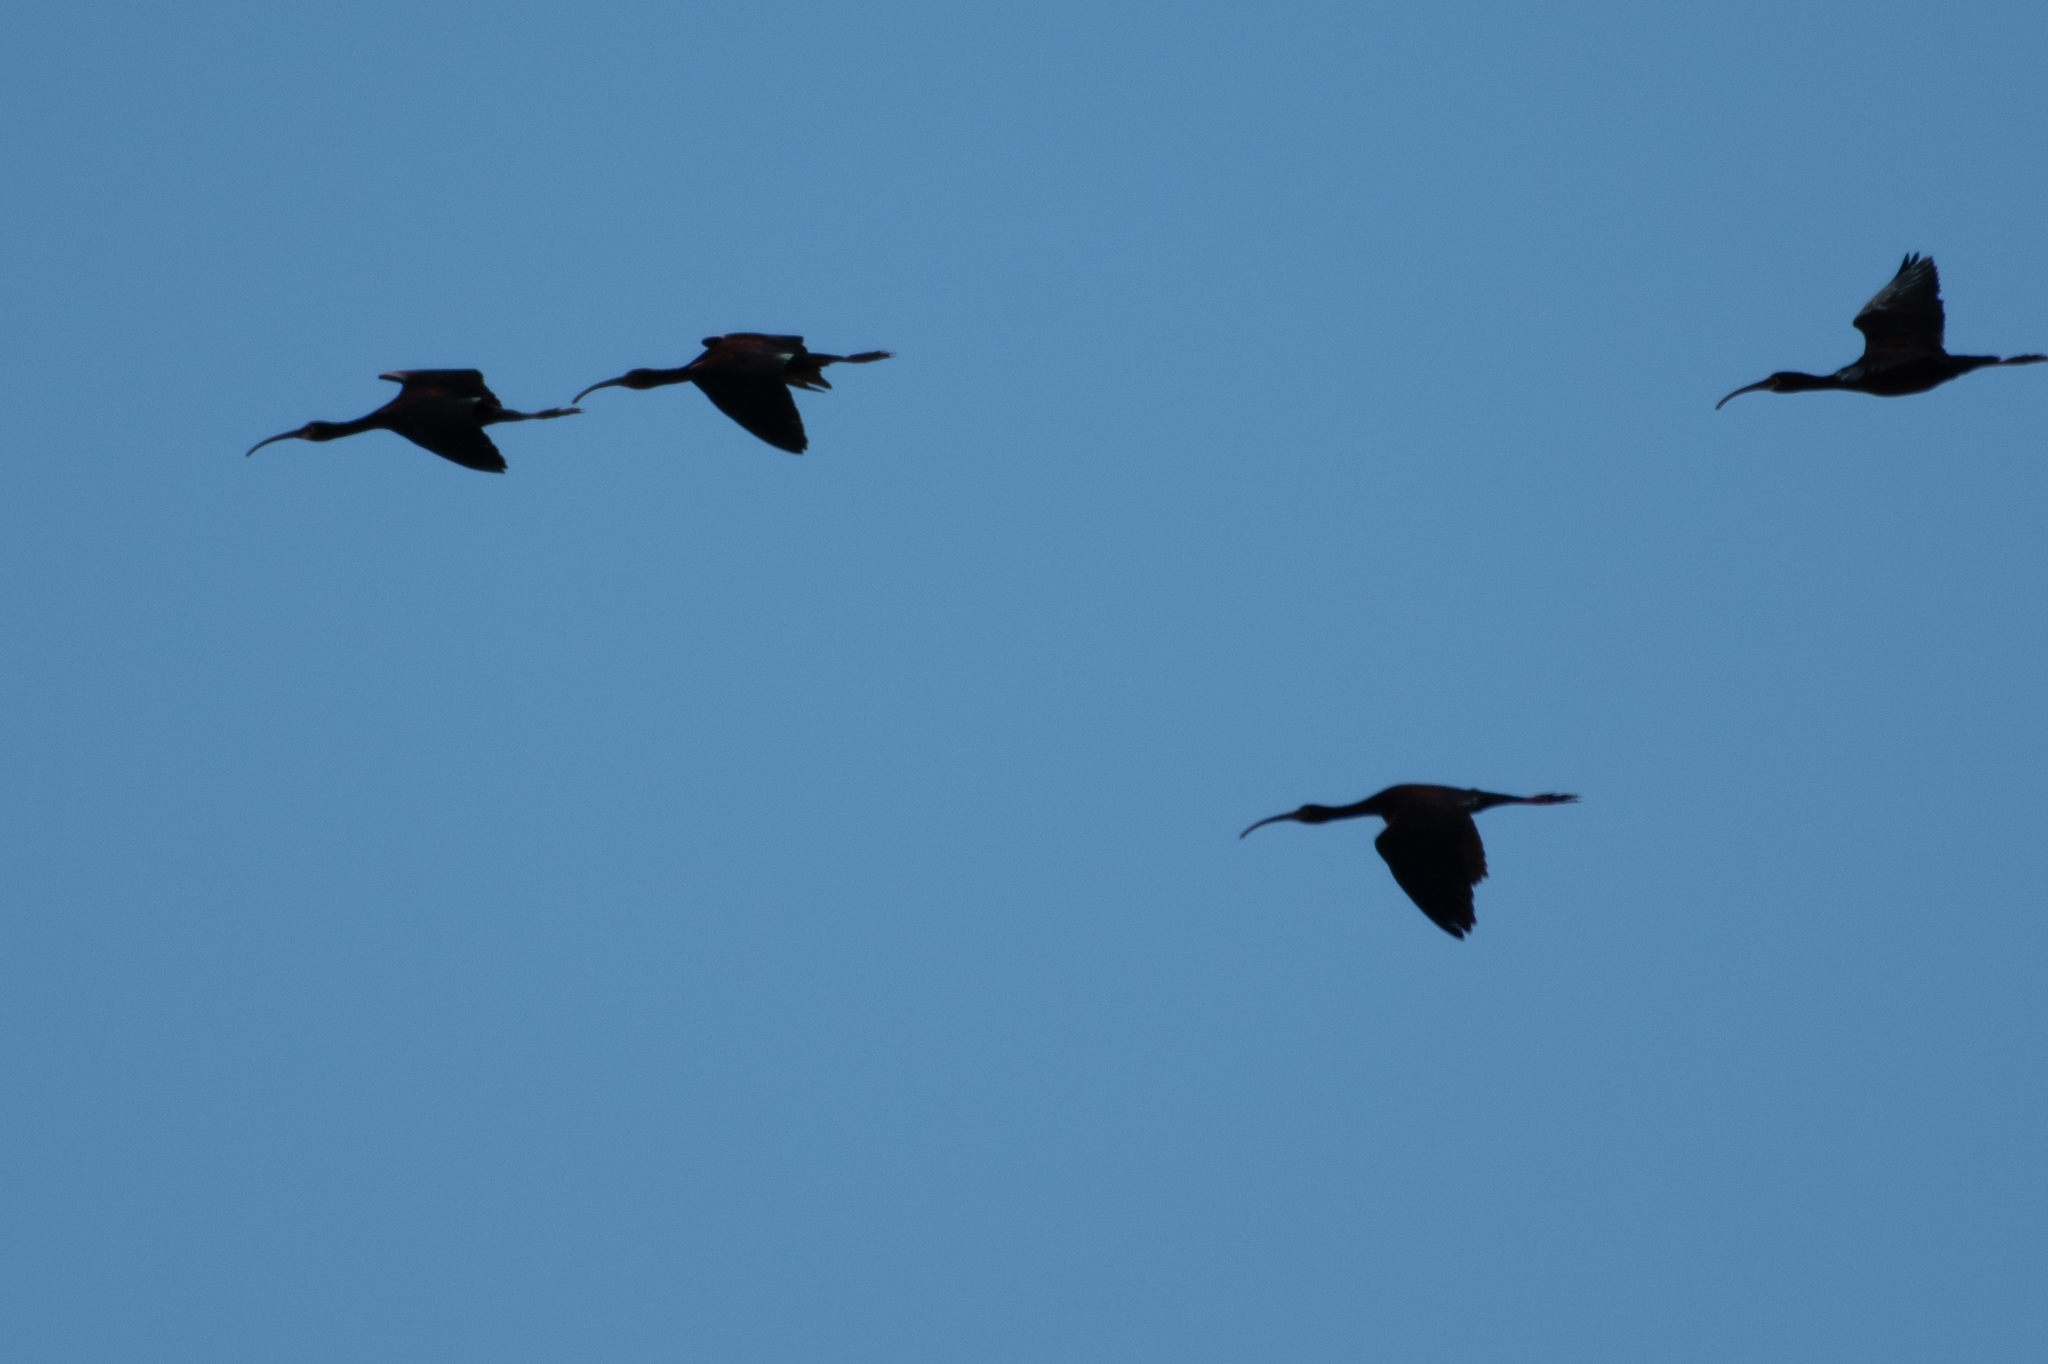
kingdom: Animalia
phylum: Chordata
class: Aves
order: Pelecaniformes
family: Threskiornithidae
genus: Plegadis
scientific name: Plegadis chihi
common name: White-faced ibis
